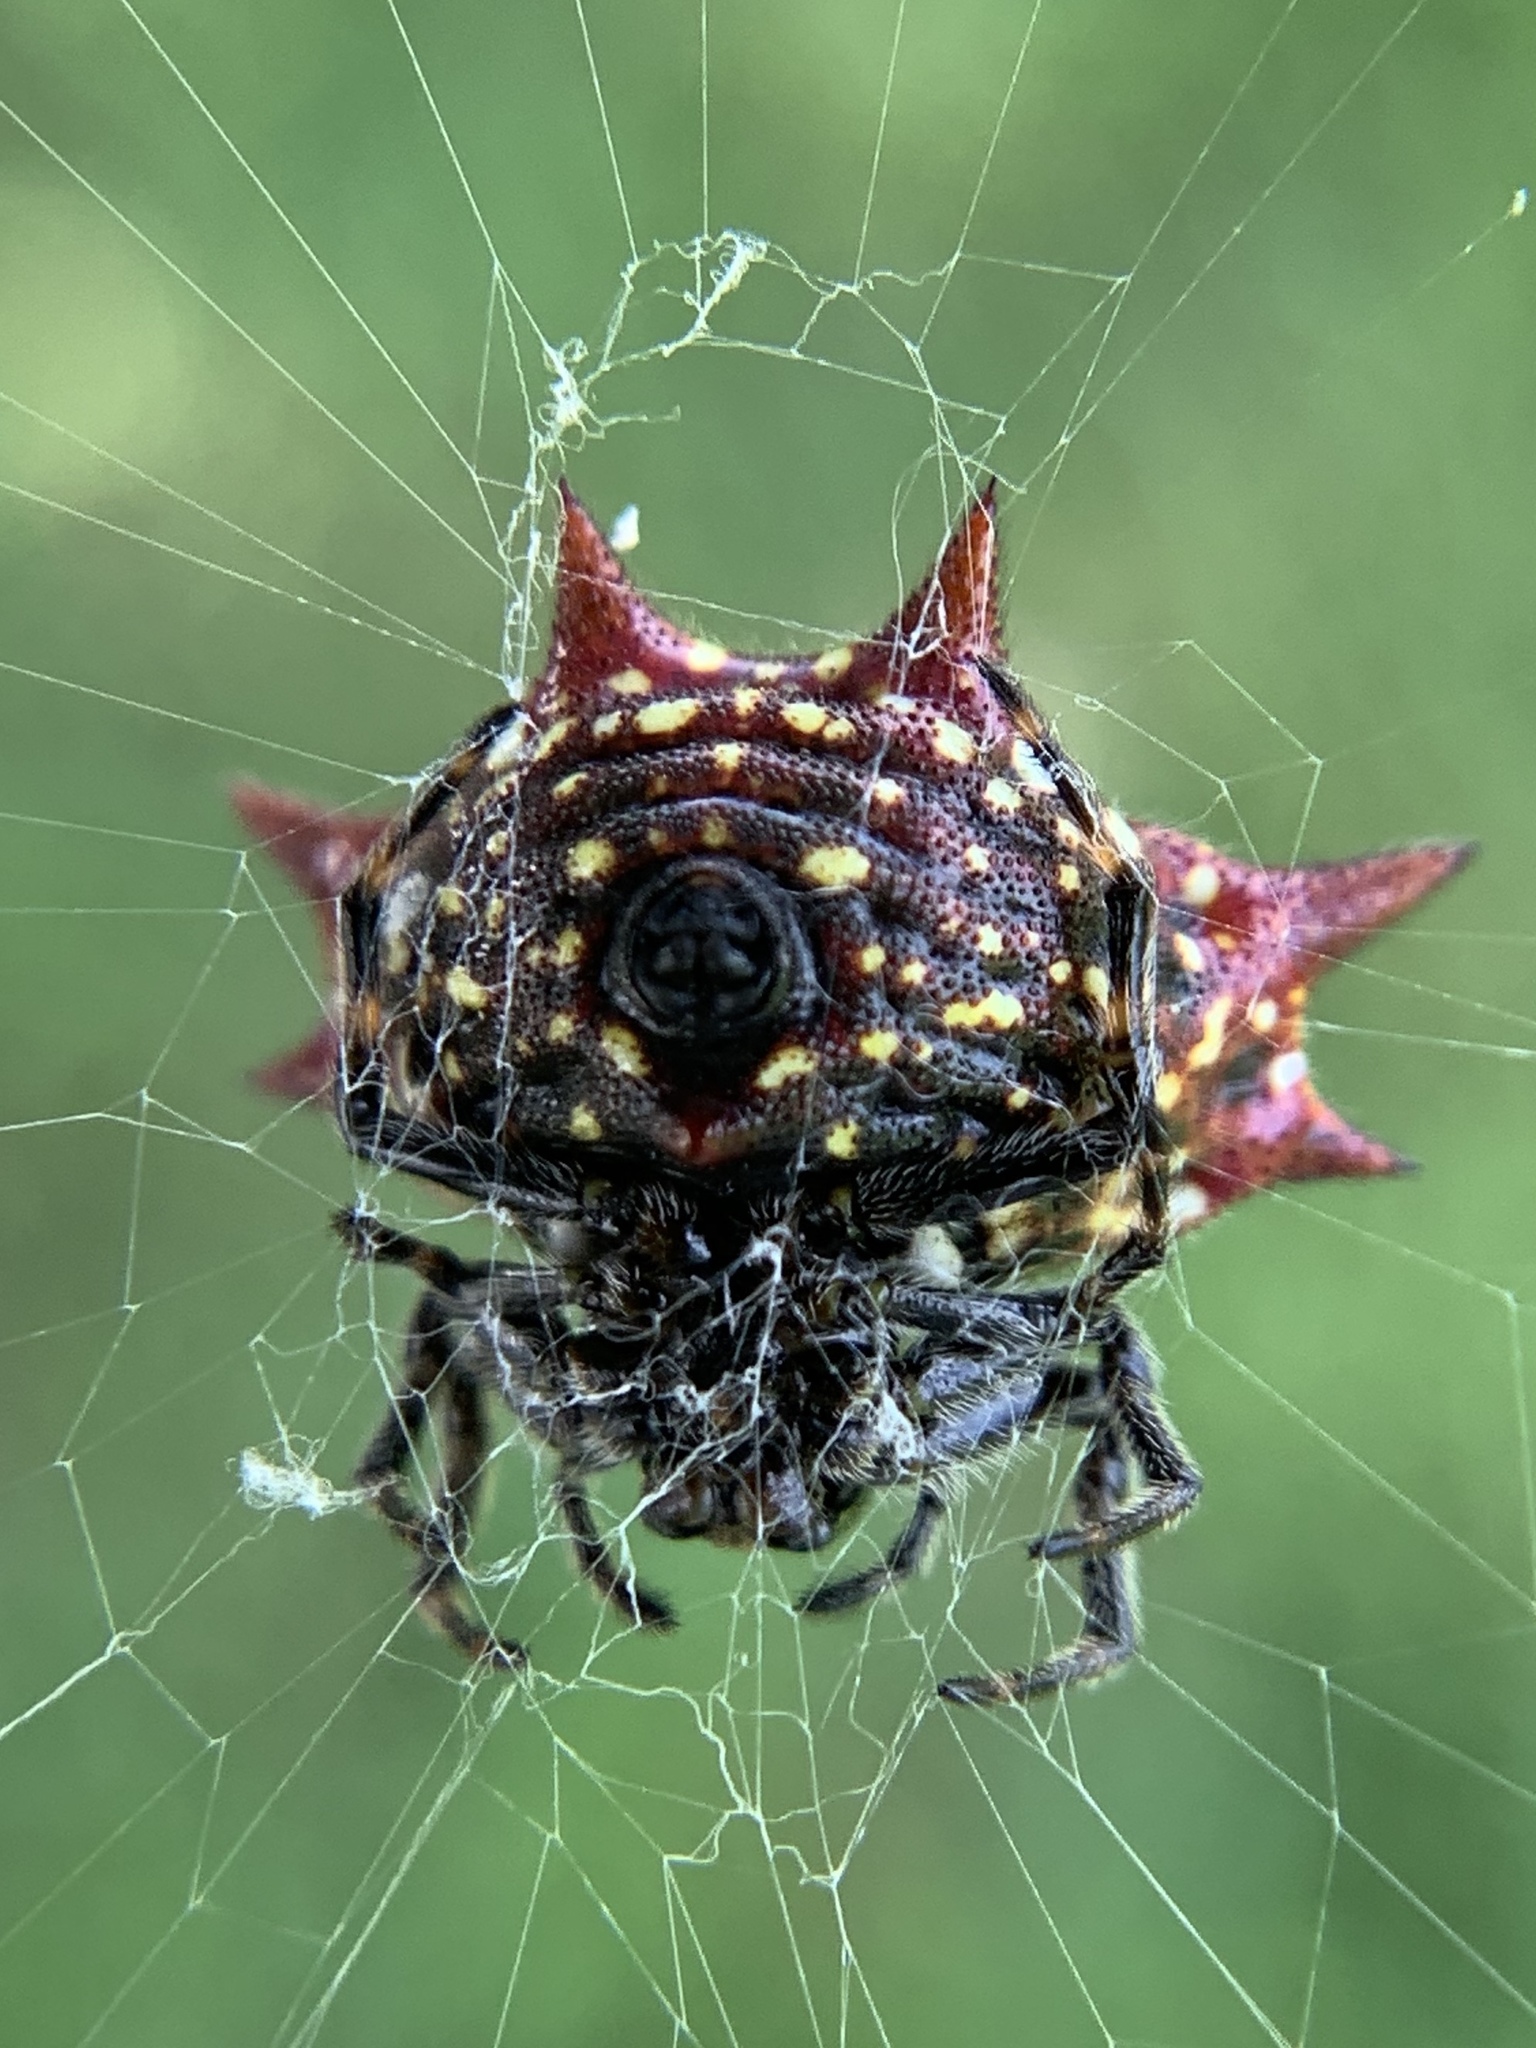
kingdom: Animalia
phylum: Arthropoda
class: Arachnida
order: Araneae
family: Araneidae
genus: Gasteracantha
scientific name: Gasteracantha cancriformis
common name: Orb weavers
